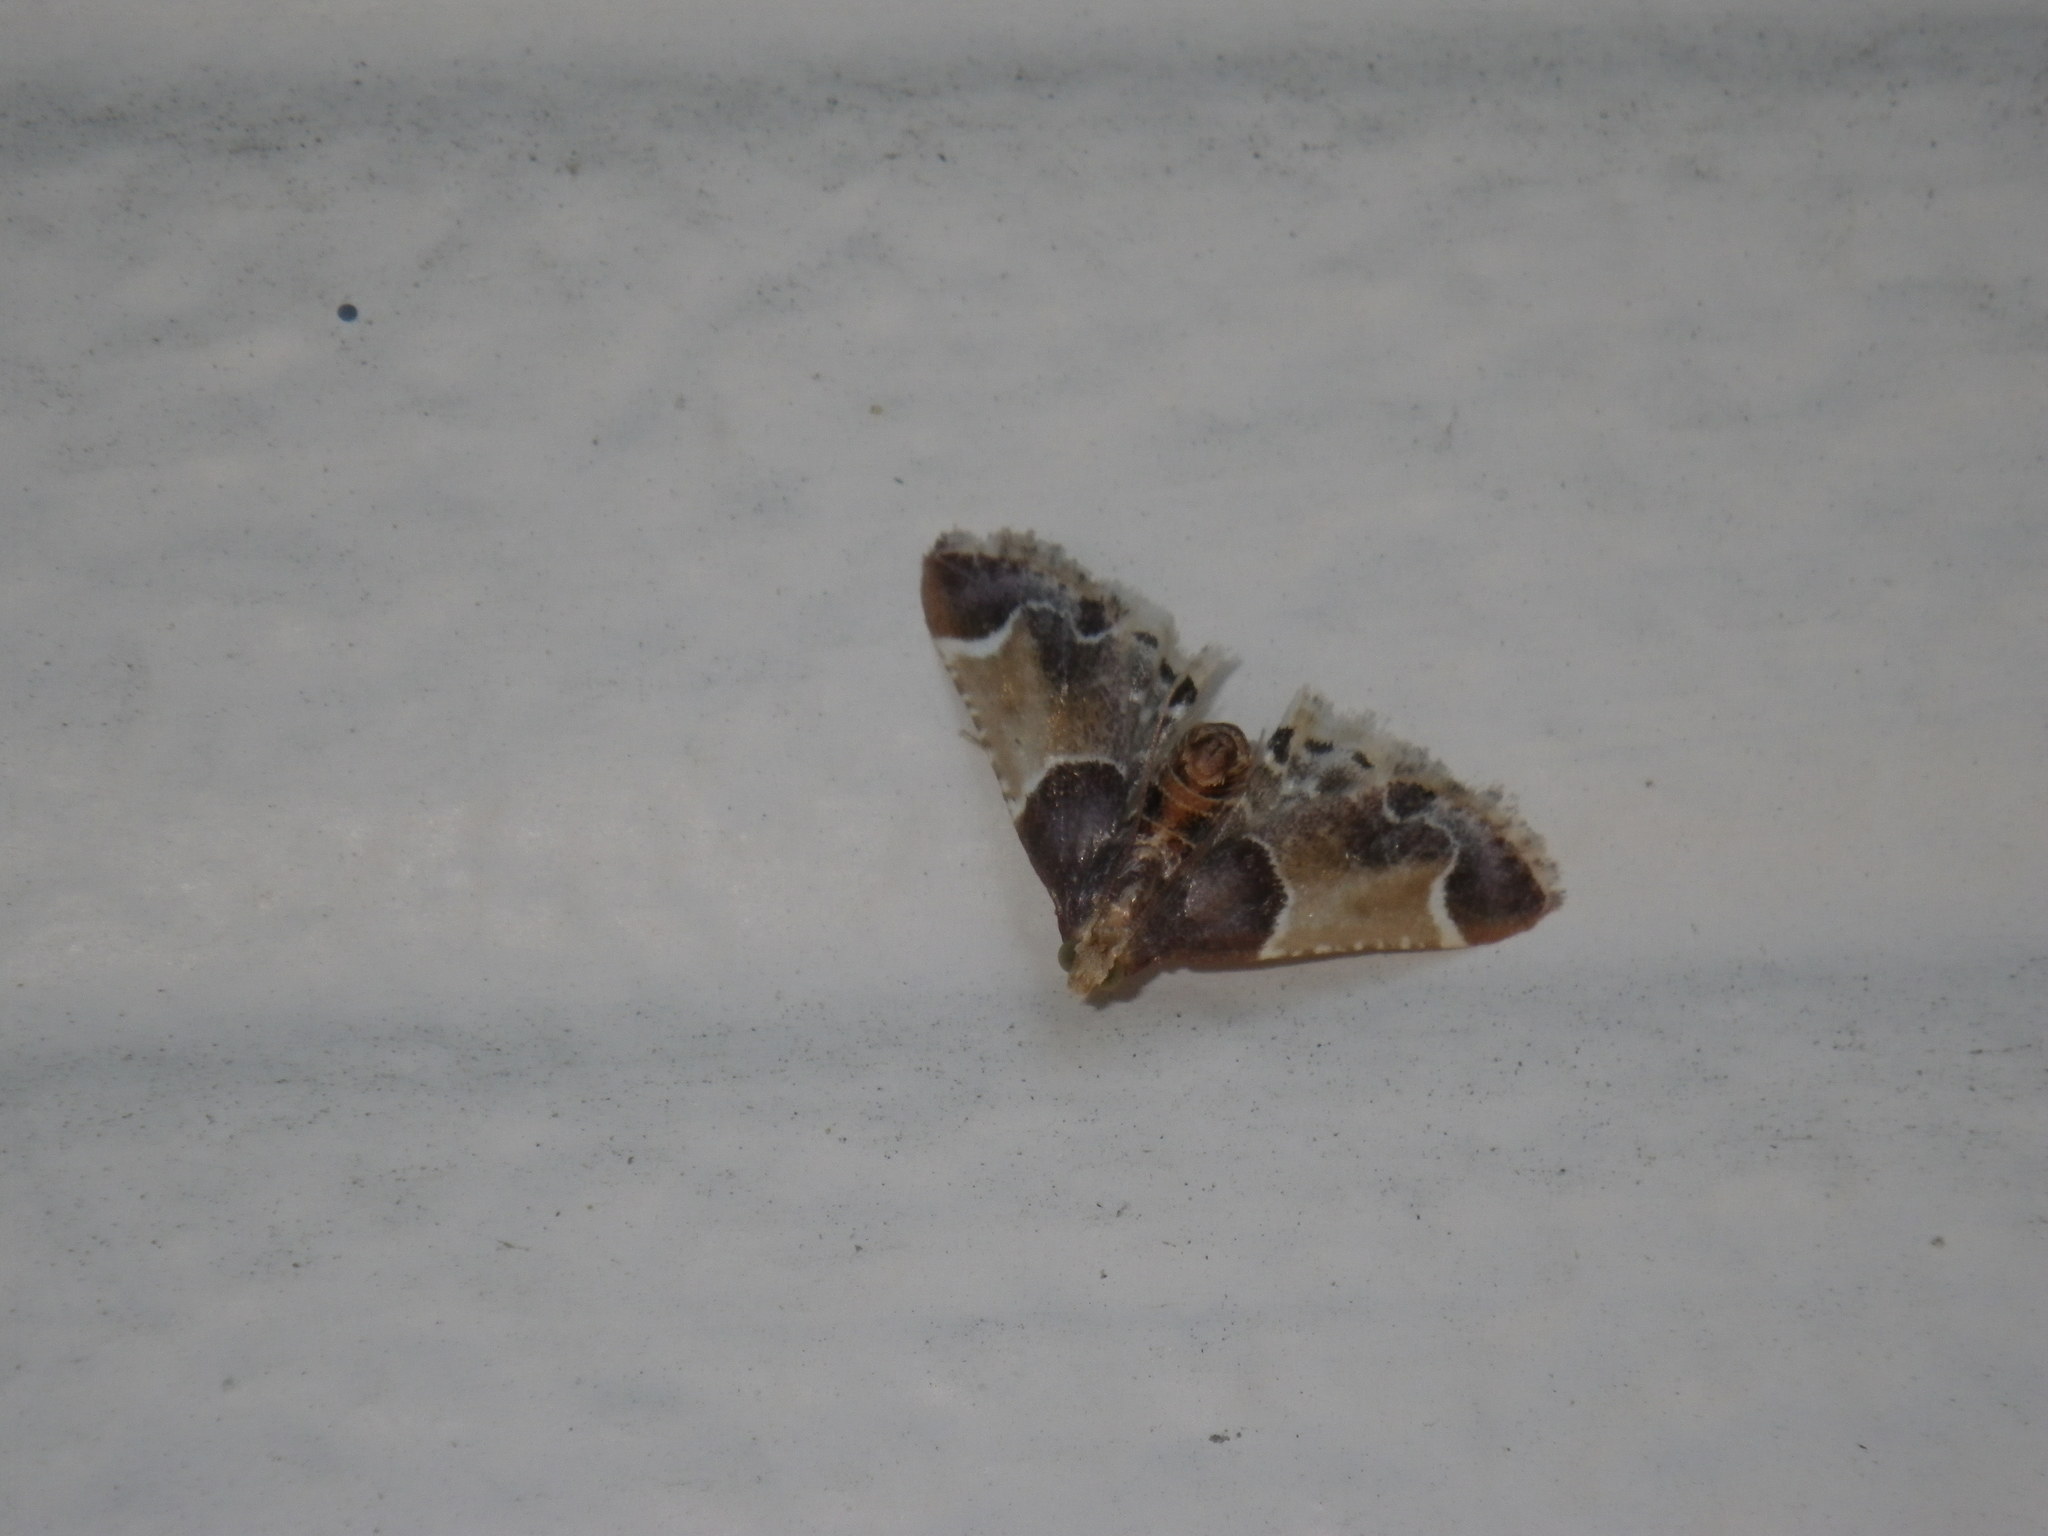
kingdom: Animalia
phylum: Arthropoda
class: Insecta
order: Lepidoptera
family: Pyralidae
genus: Pyralis
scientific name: Pyralis farinalis
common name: Meal moth
